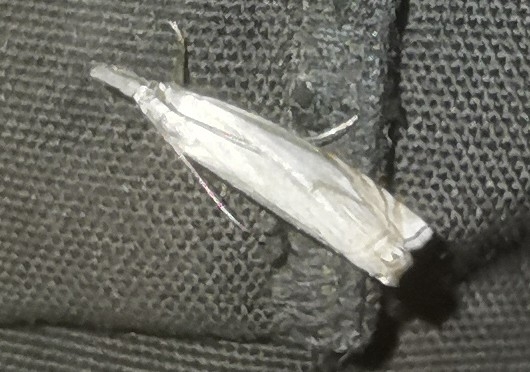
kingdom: Animalia
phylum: Arthropoda
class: Insecta
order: Lepidoptera
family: Crambidae
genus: Crambus
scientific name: Crambus nemorella
